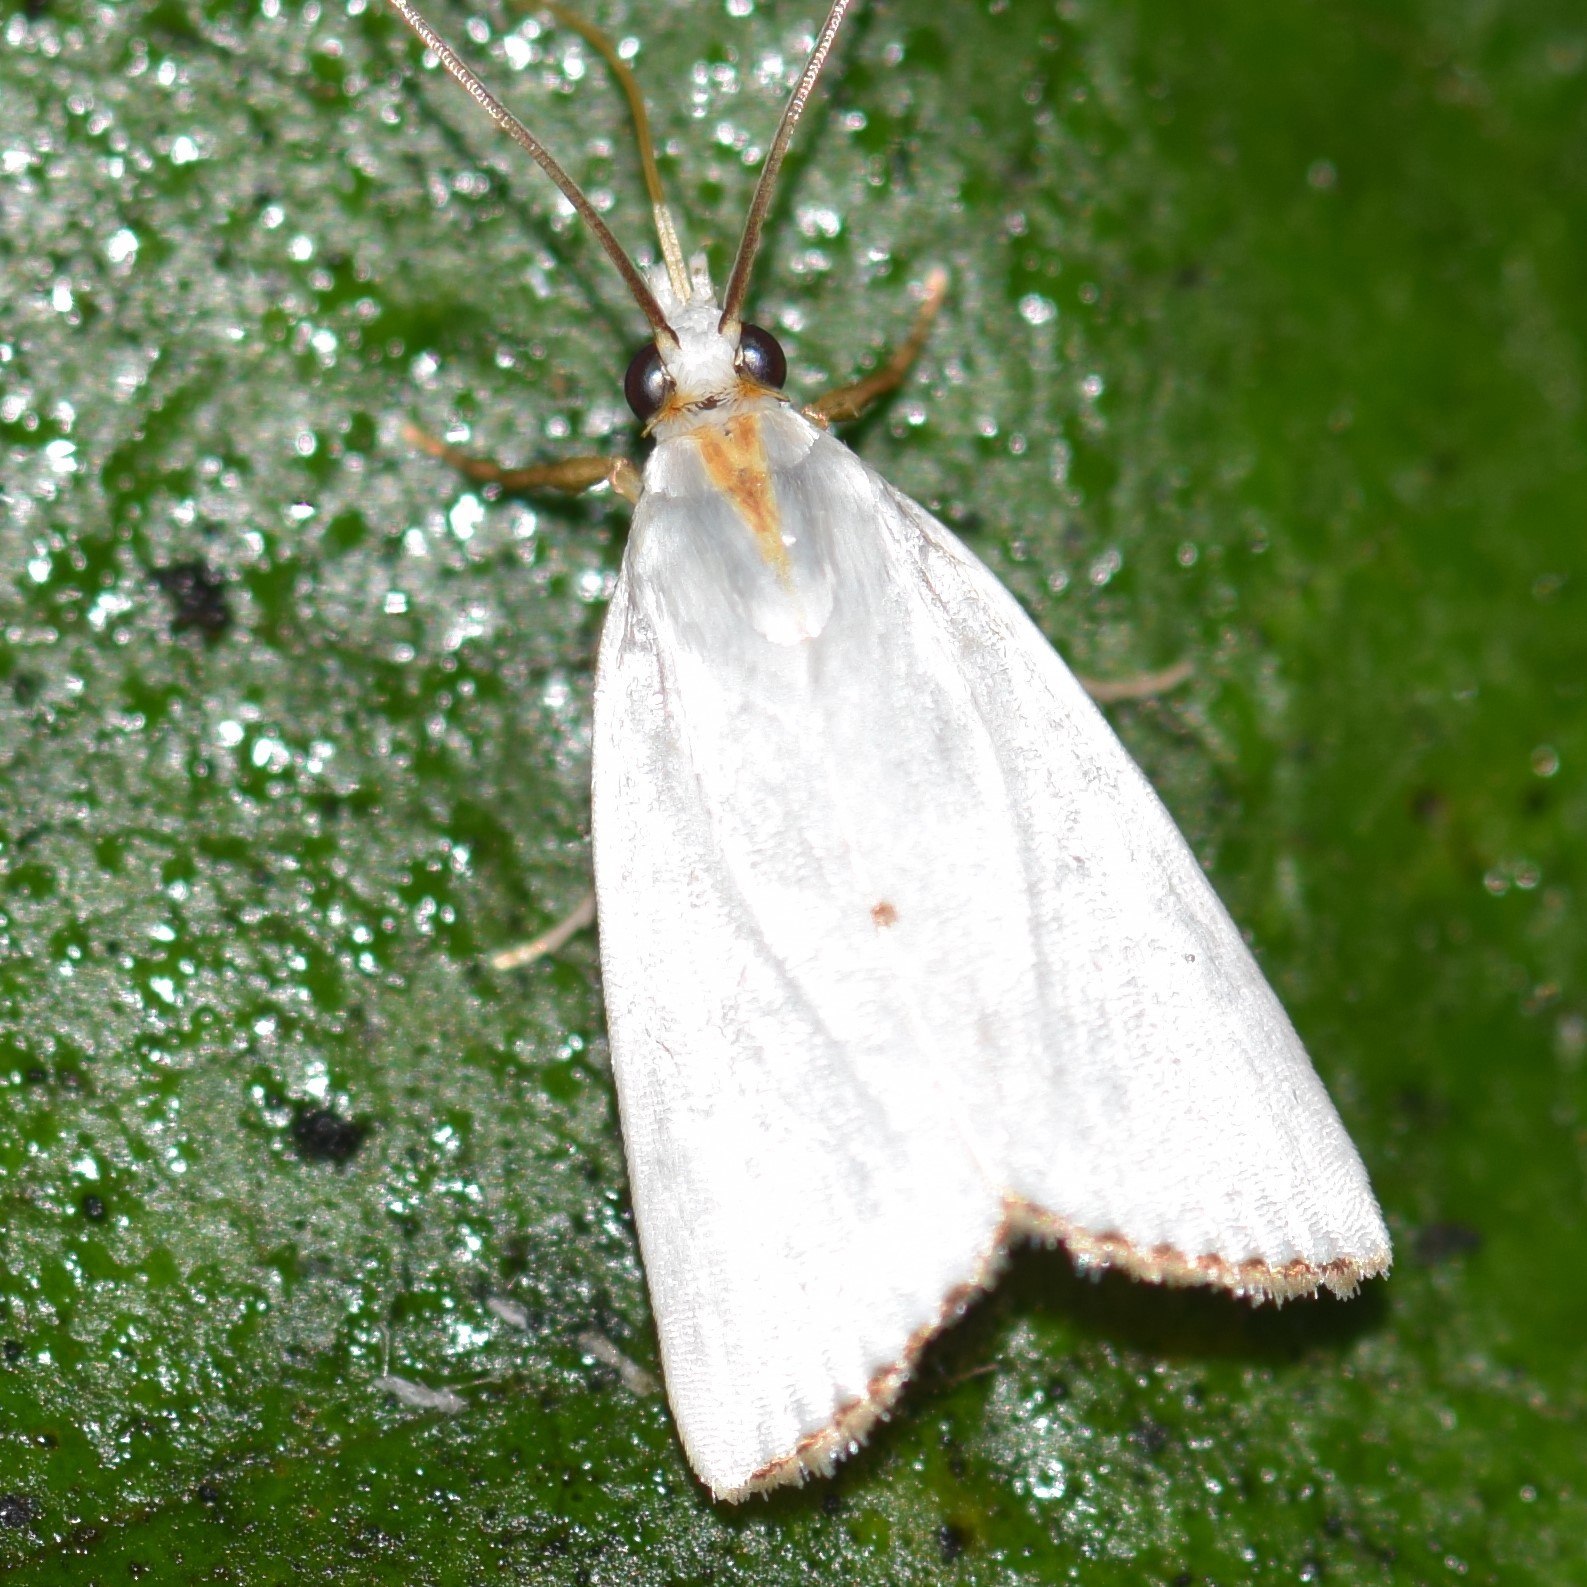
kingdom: Animalia
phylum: Arthropoda
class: Insecta
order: Lepidoptera
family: Crambidae
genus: Argyria
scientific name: Argyria nivalis
